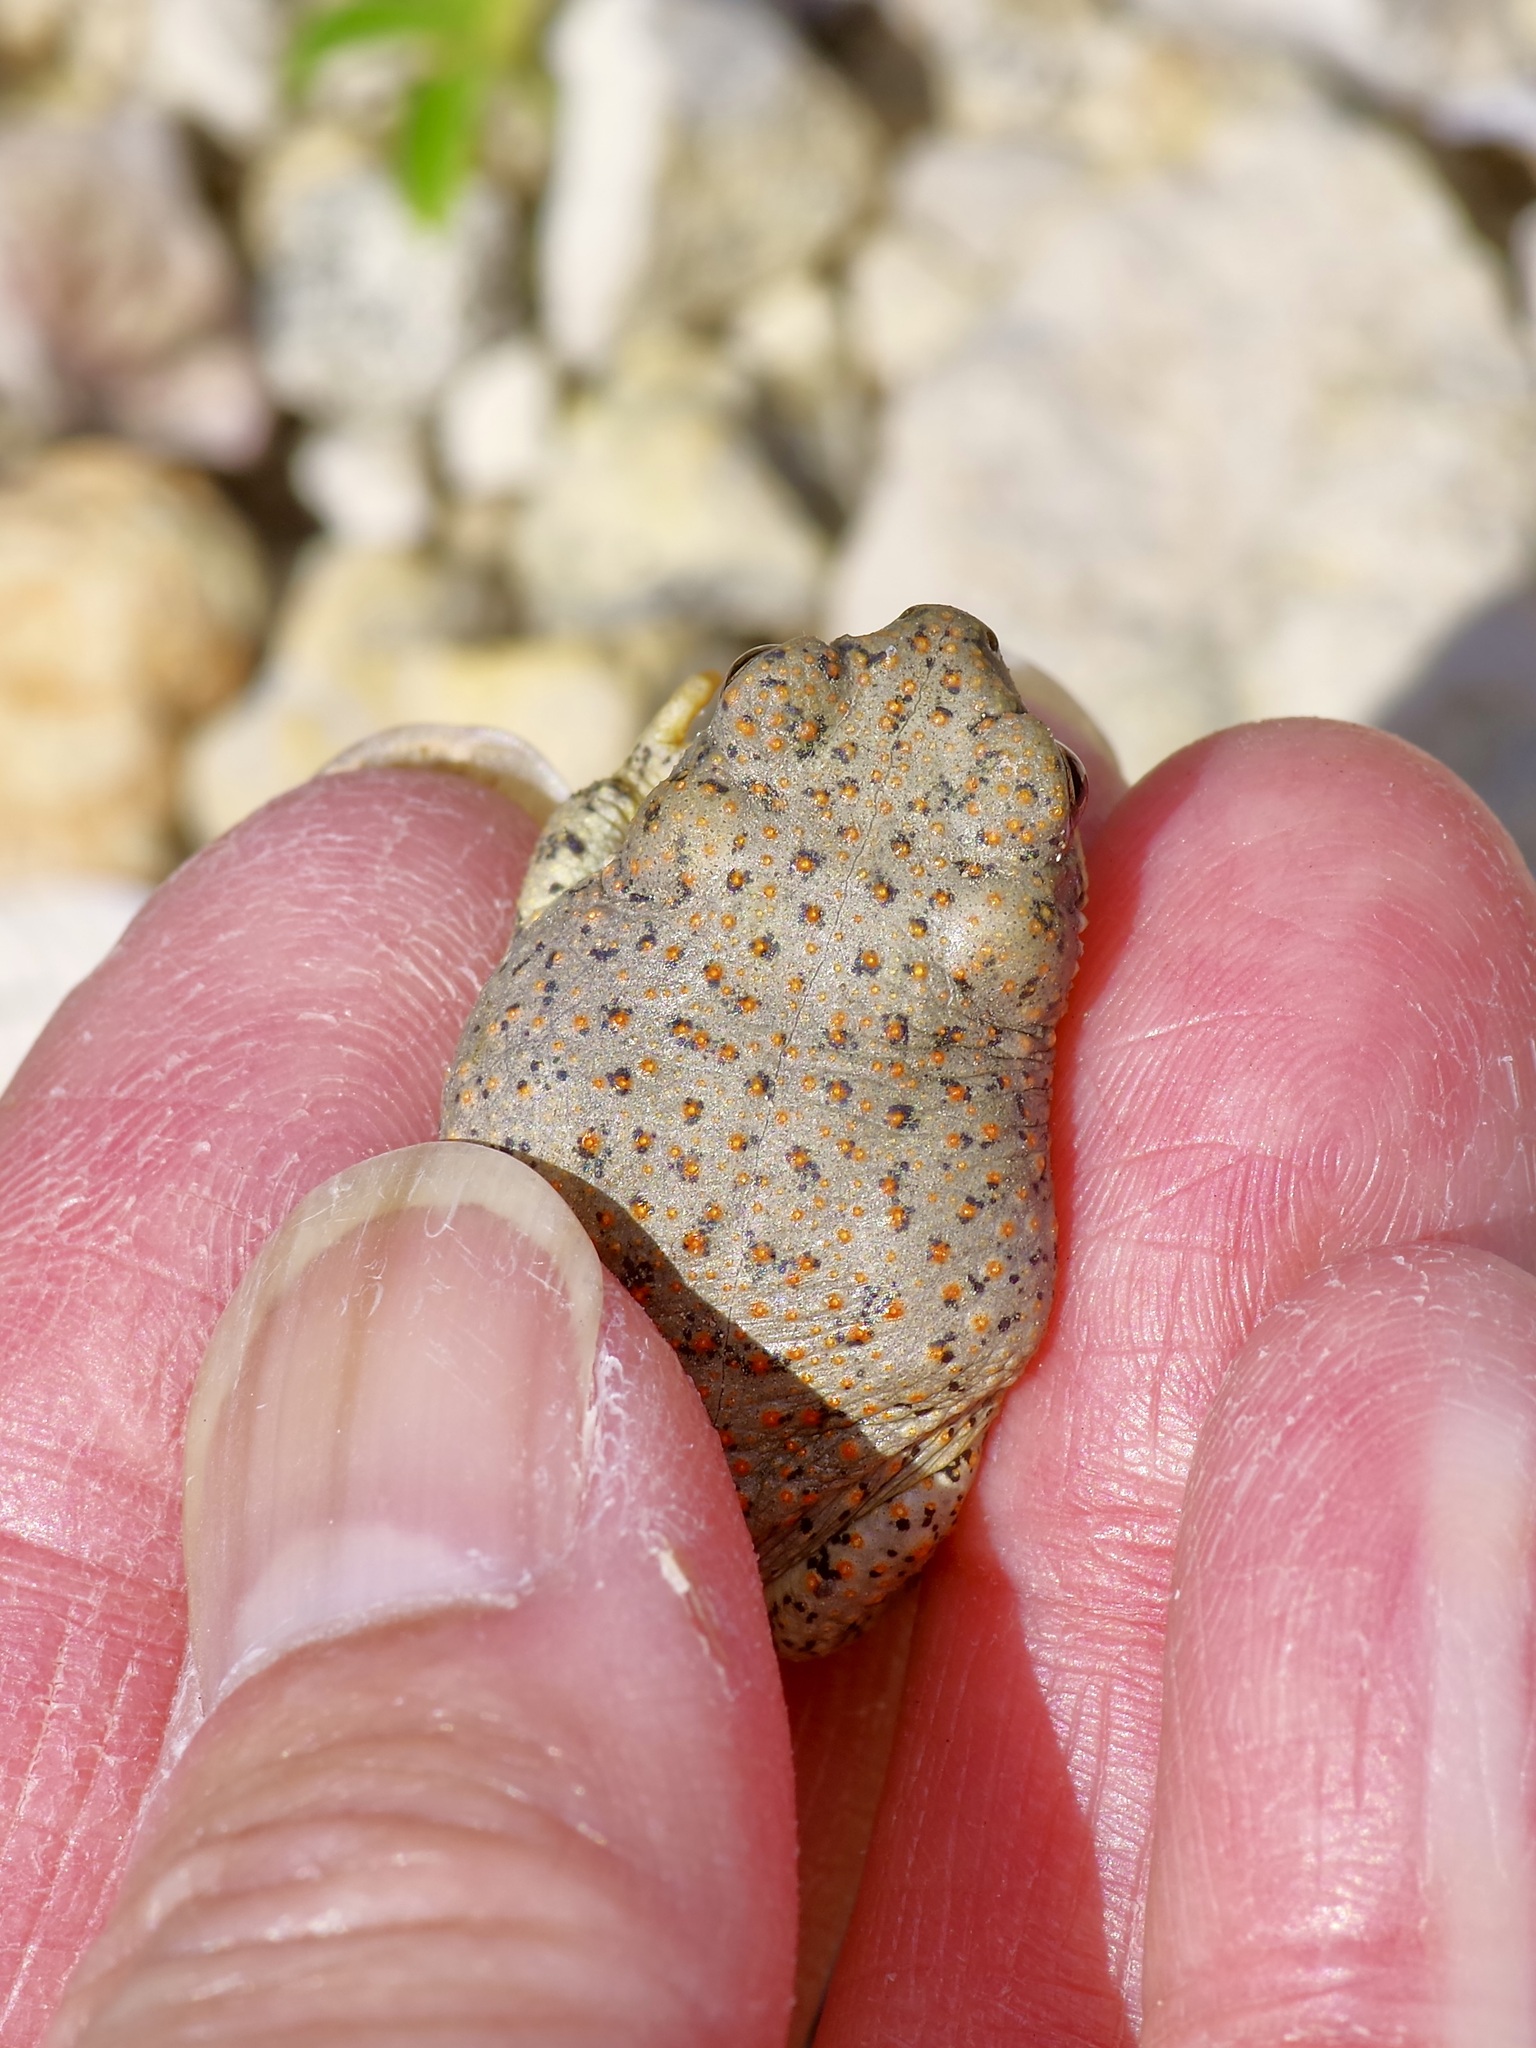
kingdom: Animalia
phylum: Chordata
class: Amphibia
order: Anura
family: Bufonidae
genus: Anaxyrus
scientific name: Anaxyrus punctatus
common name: Red-spotted toad
